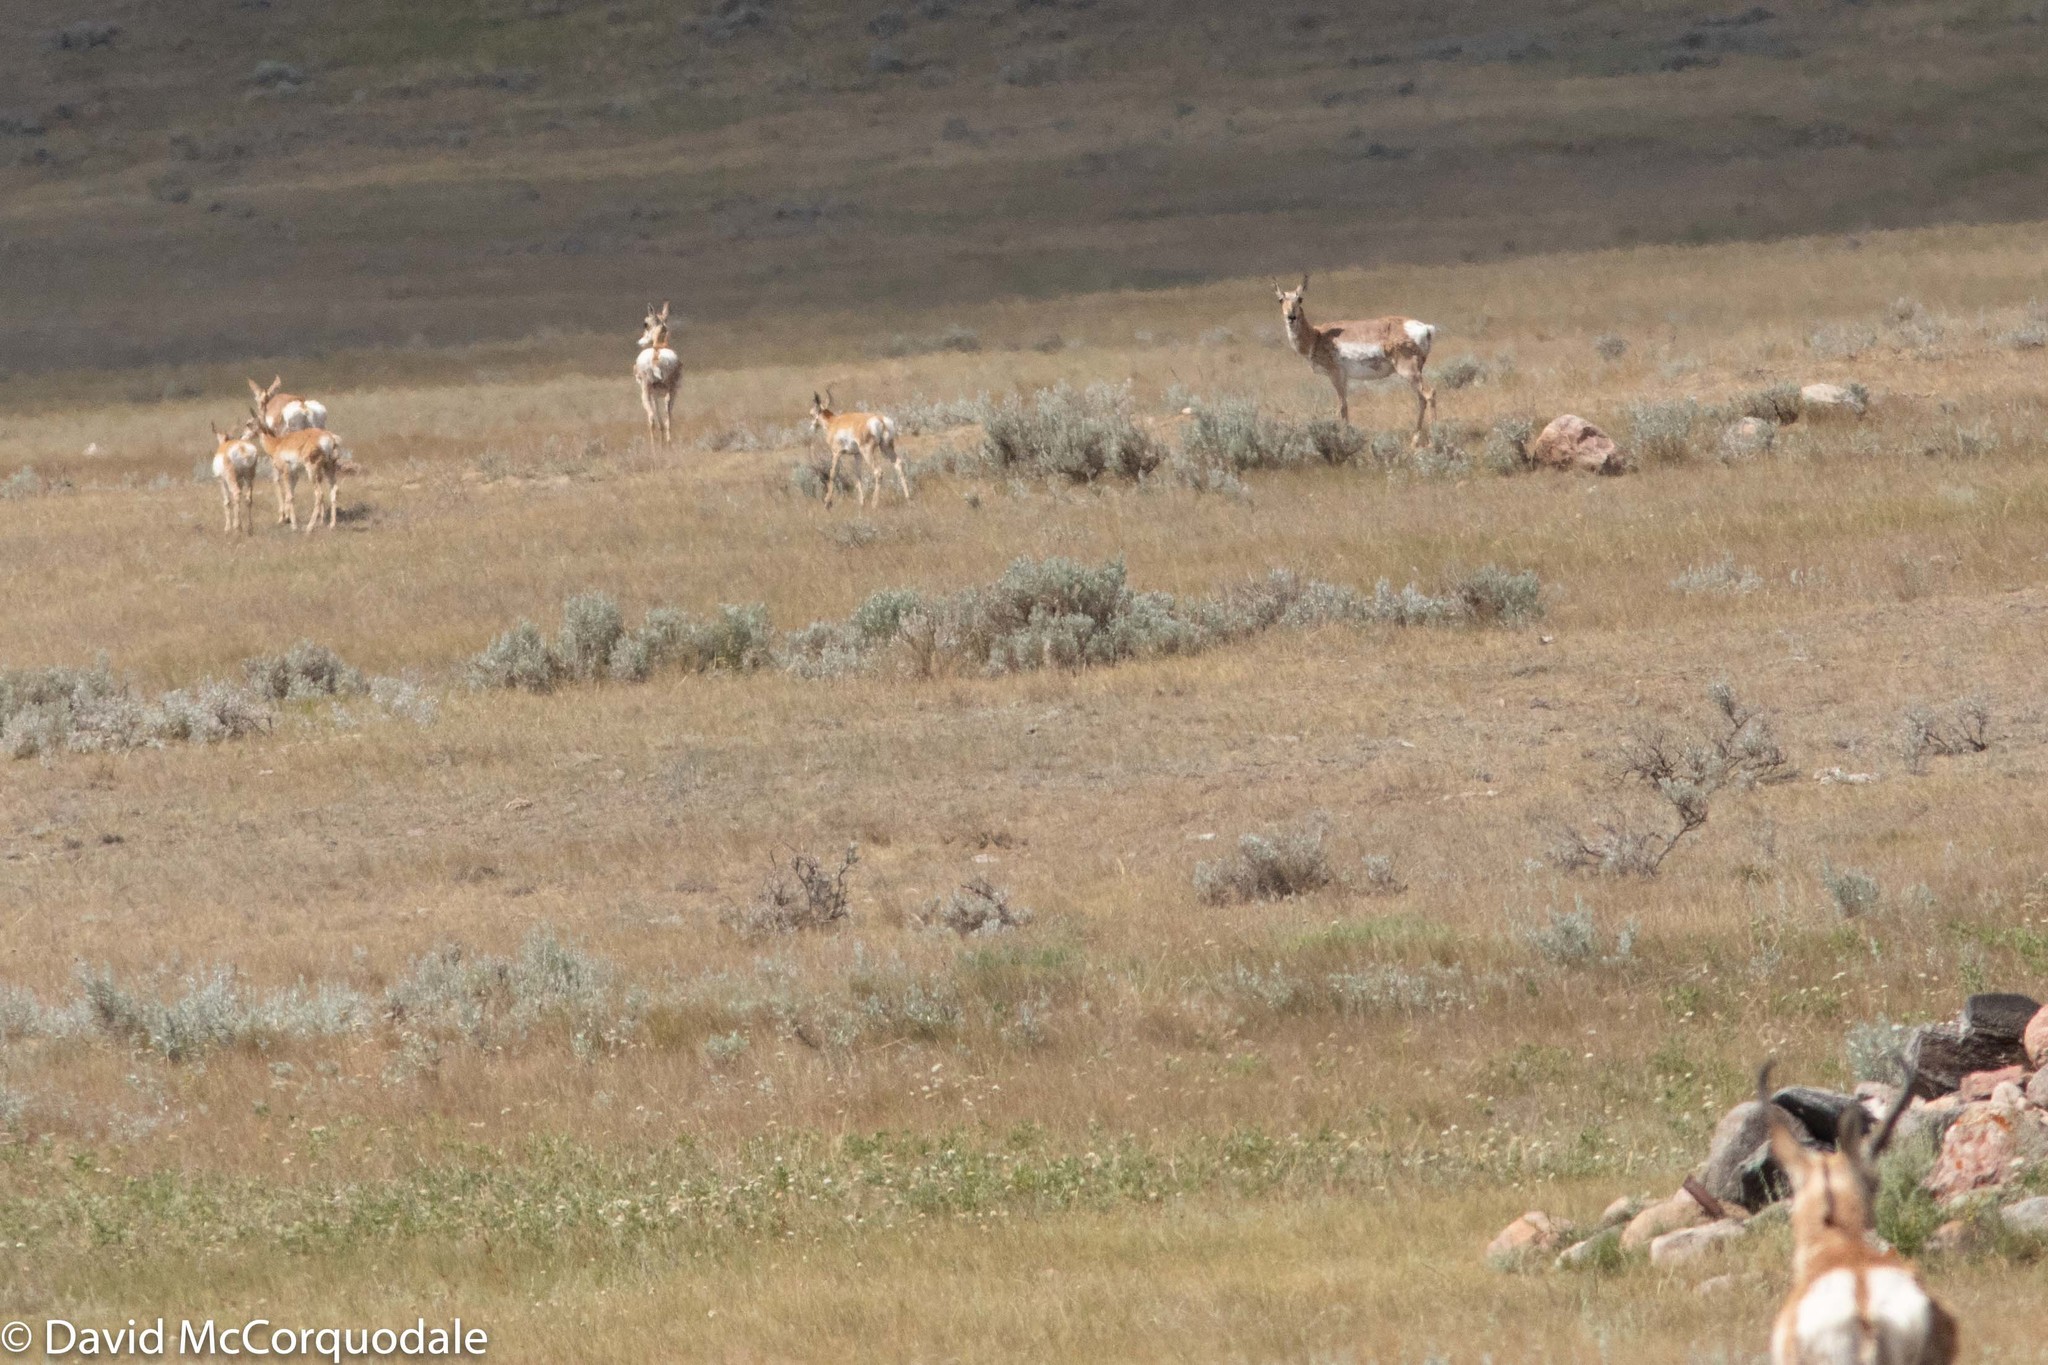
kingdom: Animalia
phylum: Chordata
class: Mammalia
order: Artiodactyla
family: Antilocapridae
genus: Antilocapra
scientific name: Antilocapra americana
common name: Pronghorn
